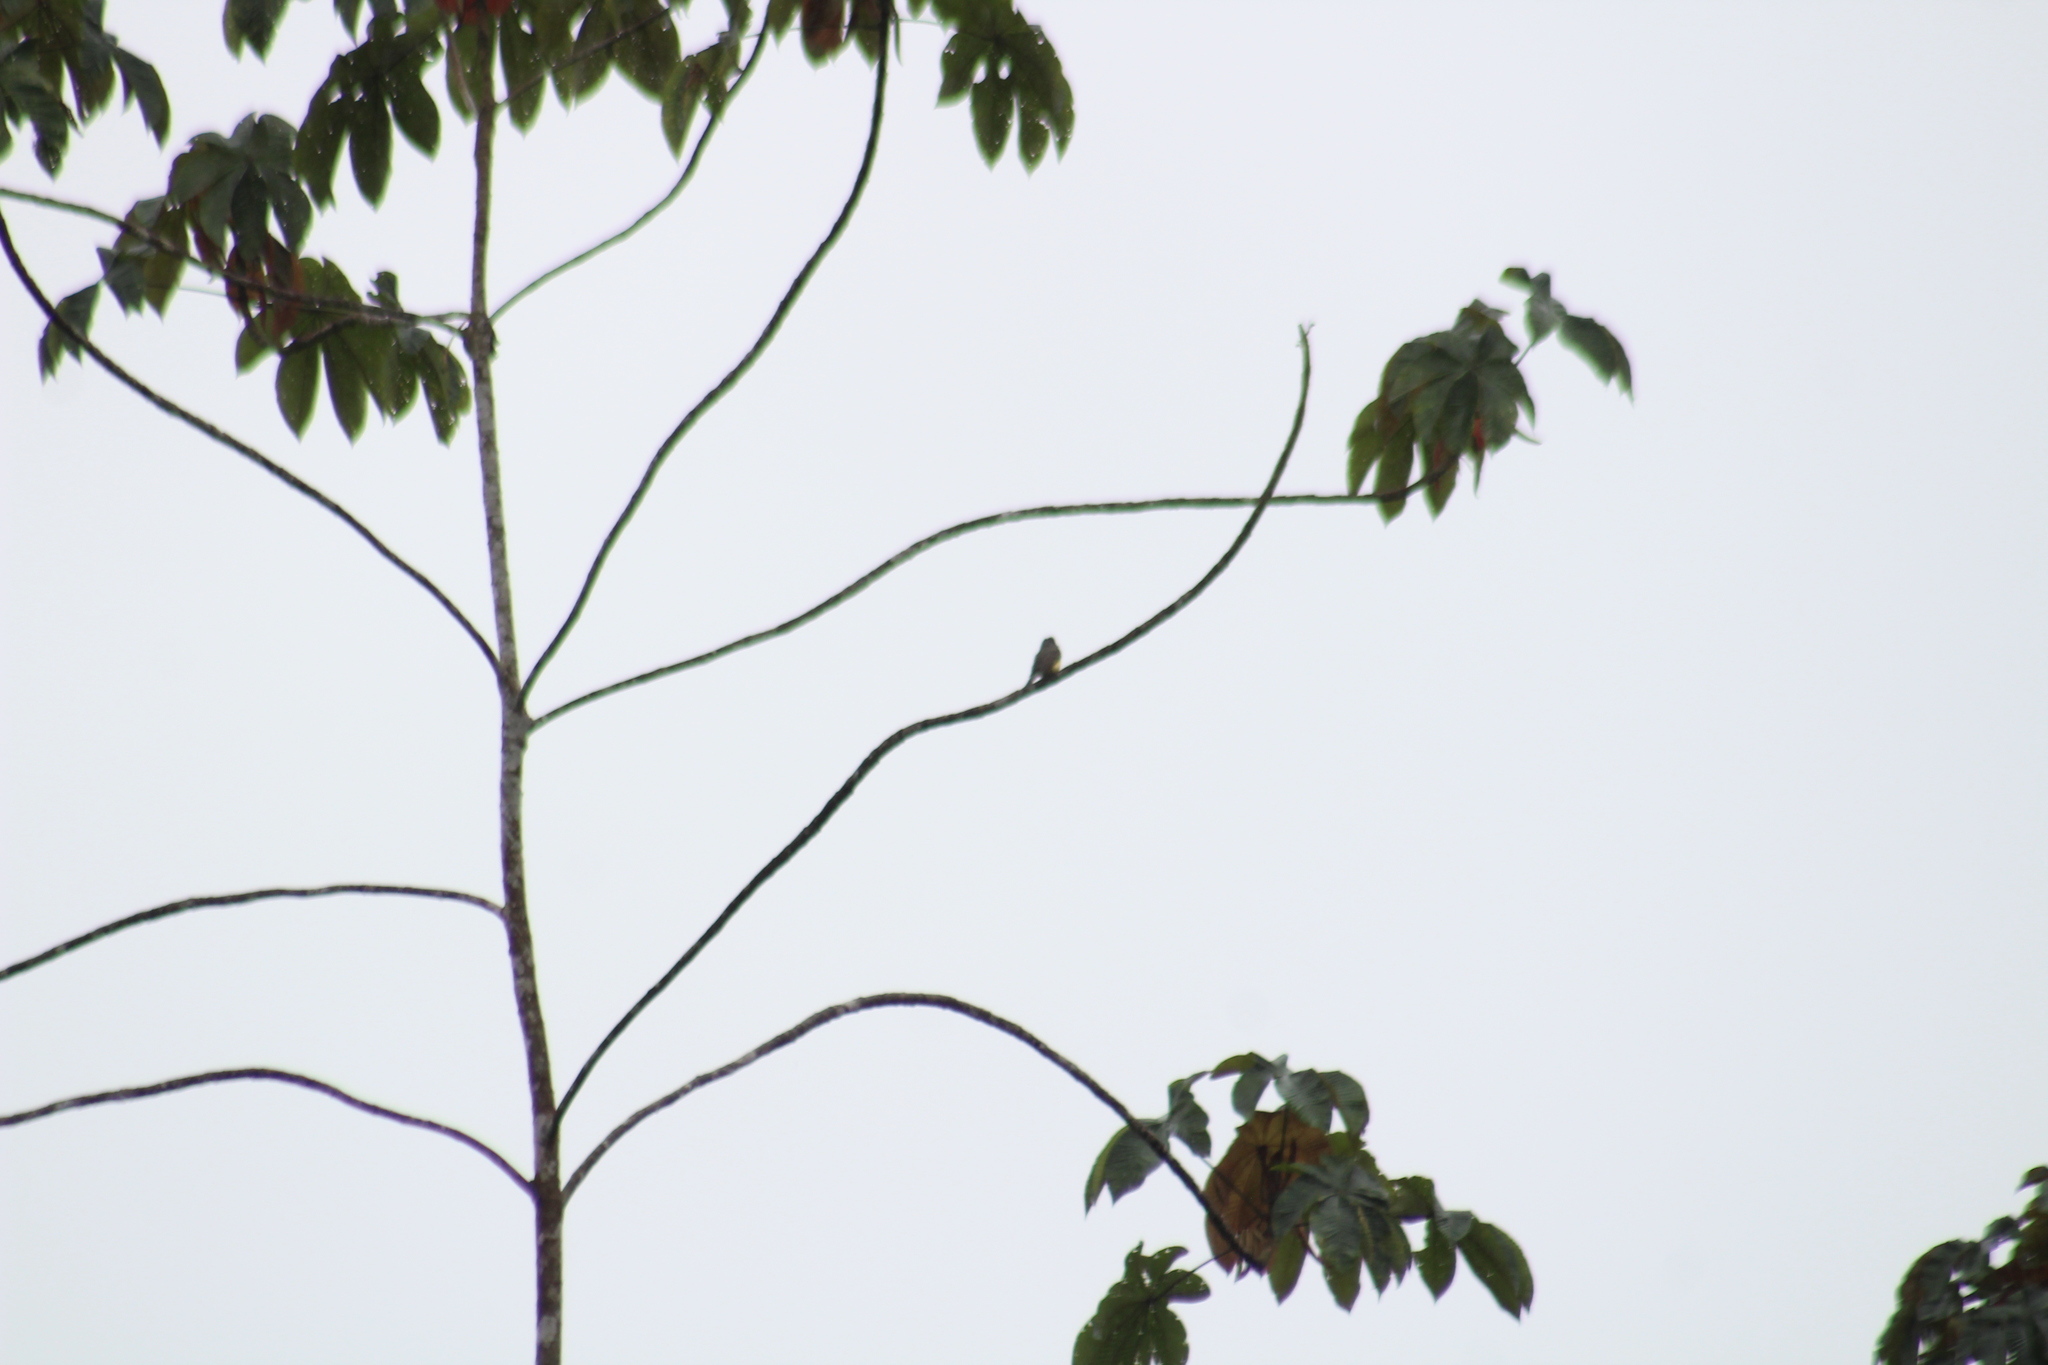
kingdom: Animalia
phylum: Chordata
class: Aves
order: Passeriformes
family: Tyrannidae
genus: Tyrannus
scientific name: Tyrannus melancholicus
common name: Tropical kingbird
